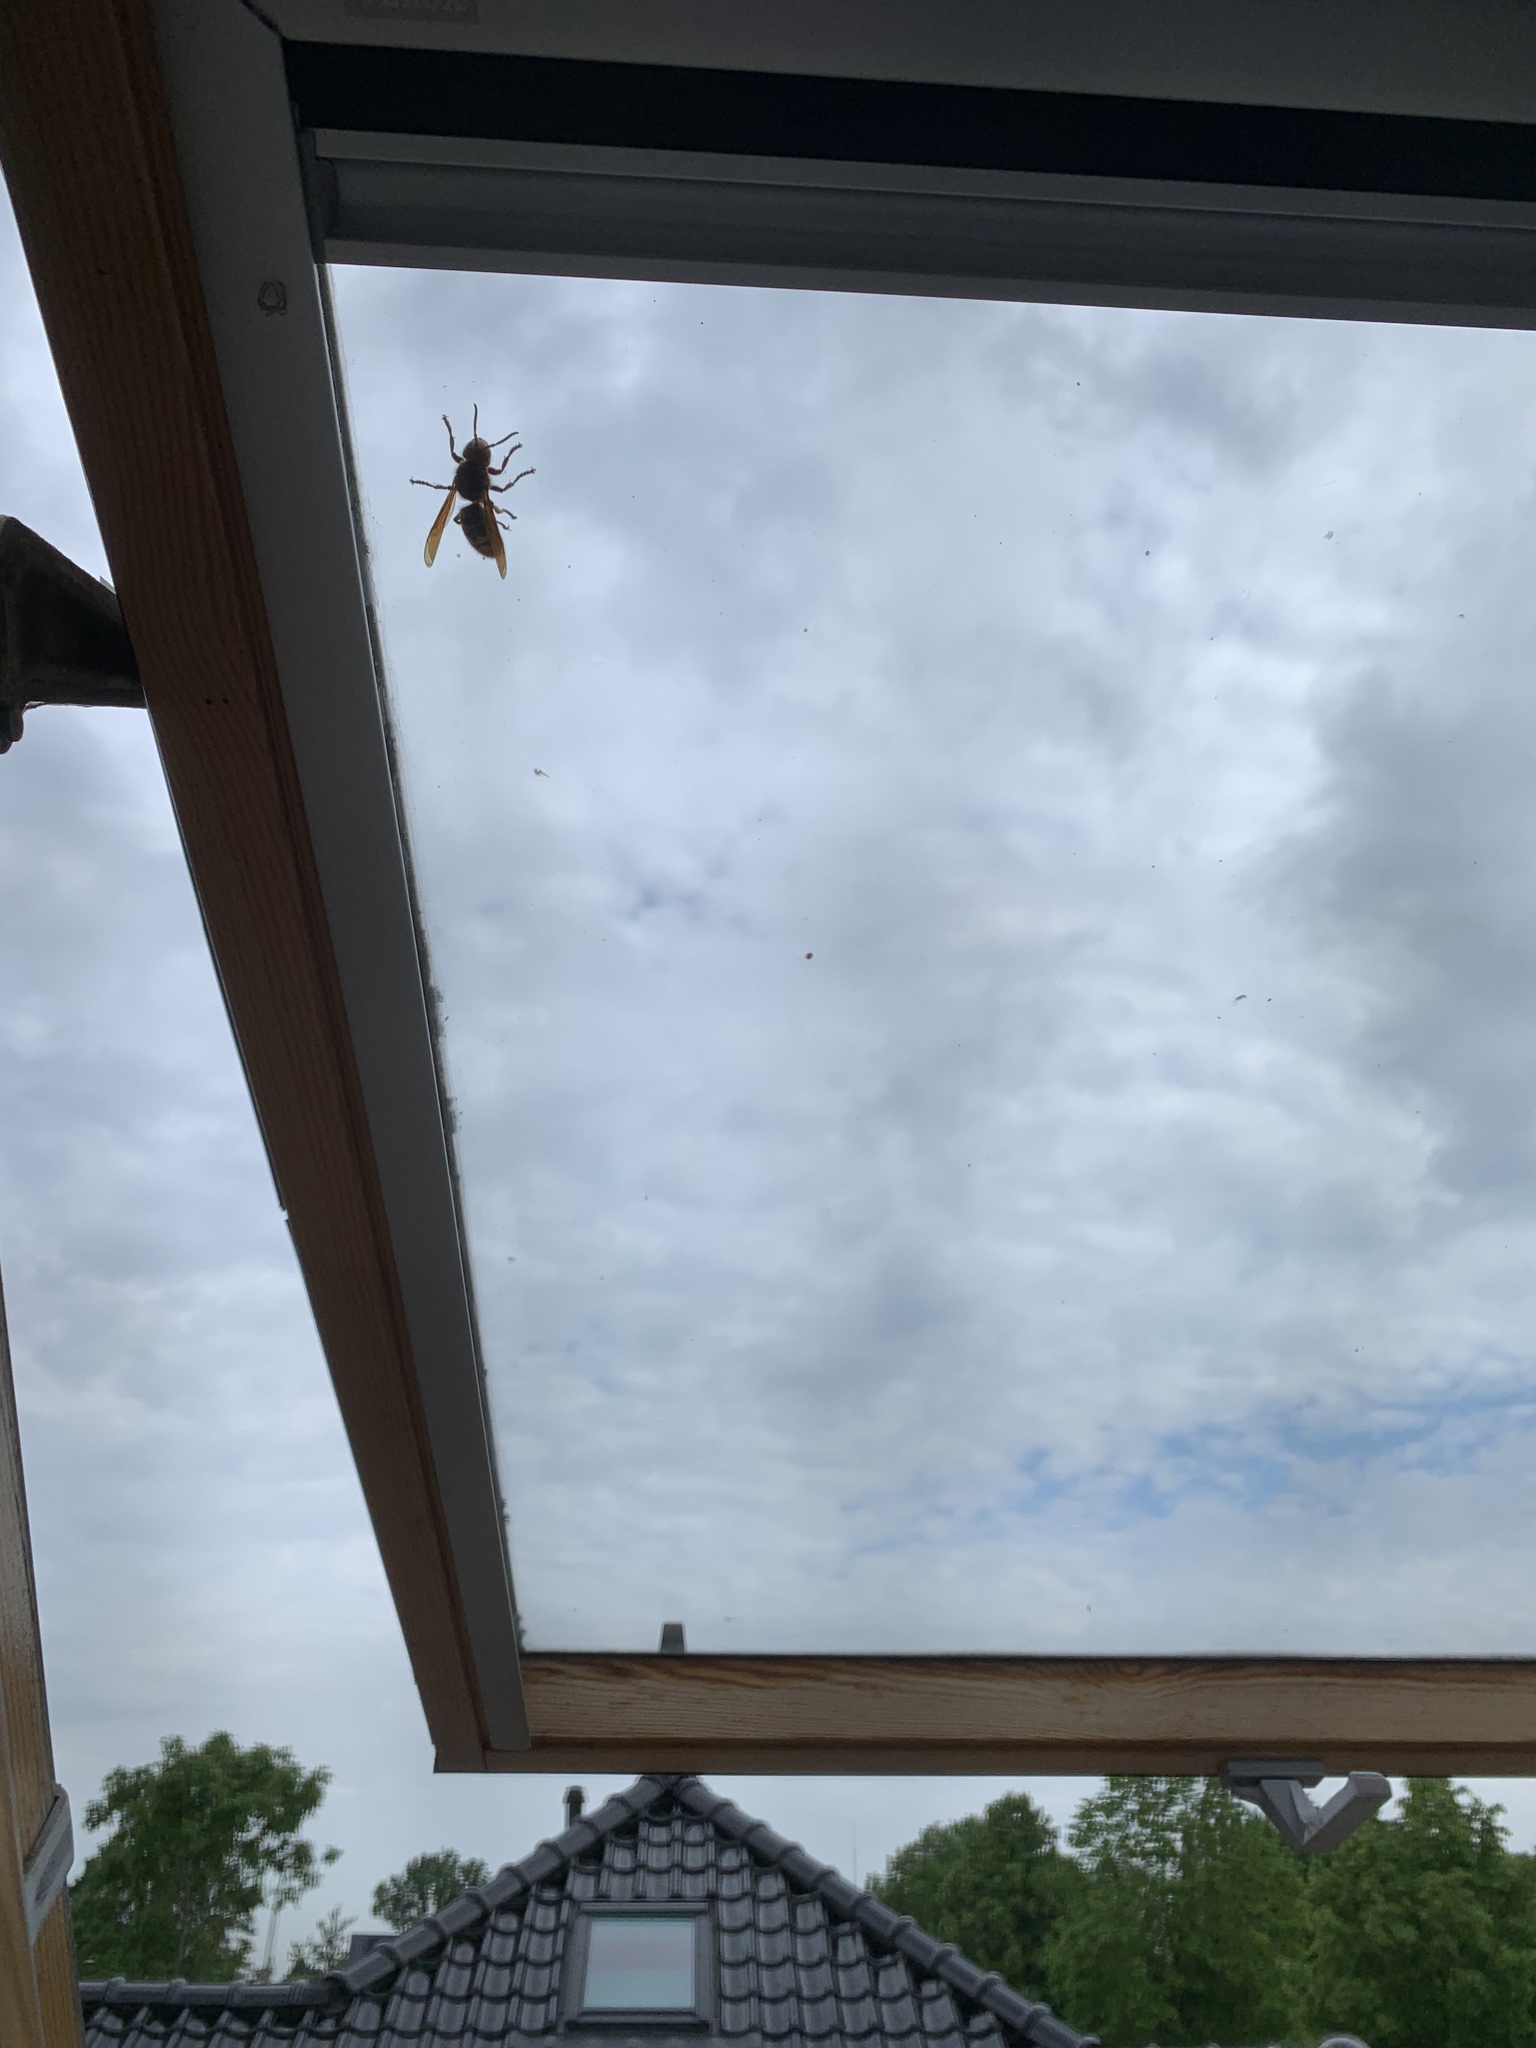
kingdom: Animalia
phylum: Arthropoda
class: Insecta
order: Hymenoptera
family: Vespidae
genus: Vespa
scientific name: Vespa crabro
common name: Hornet
